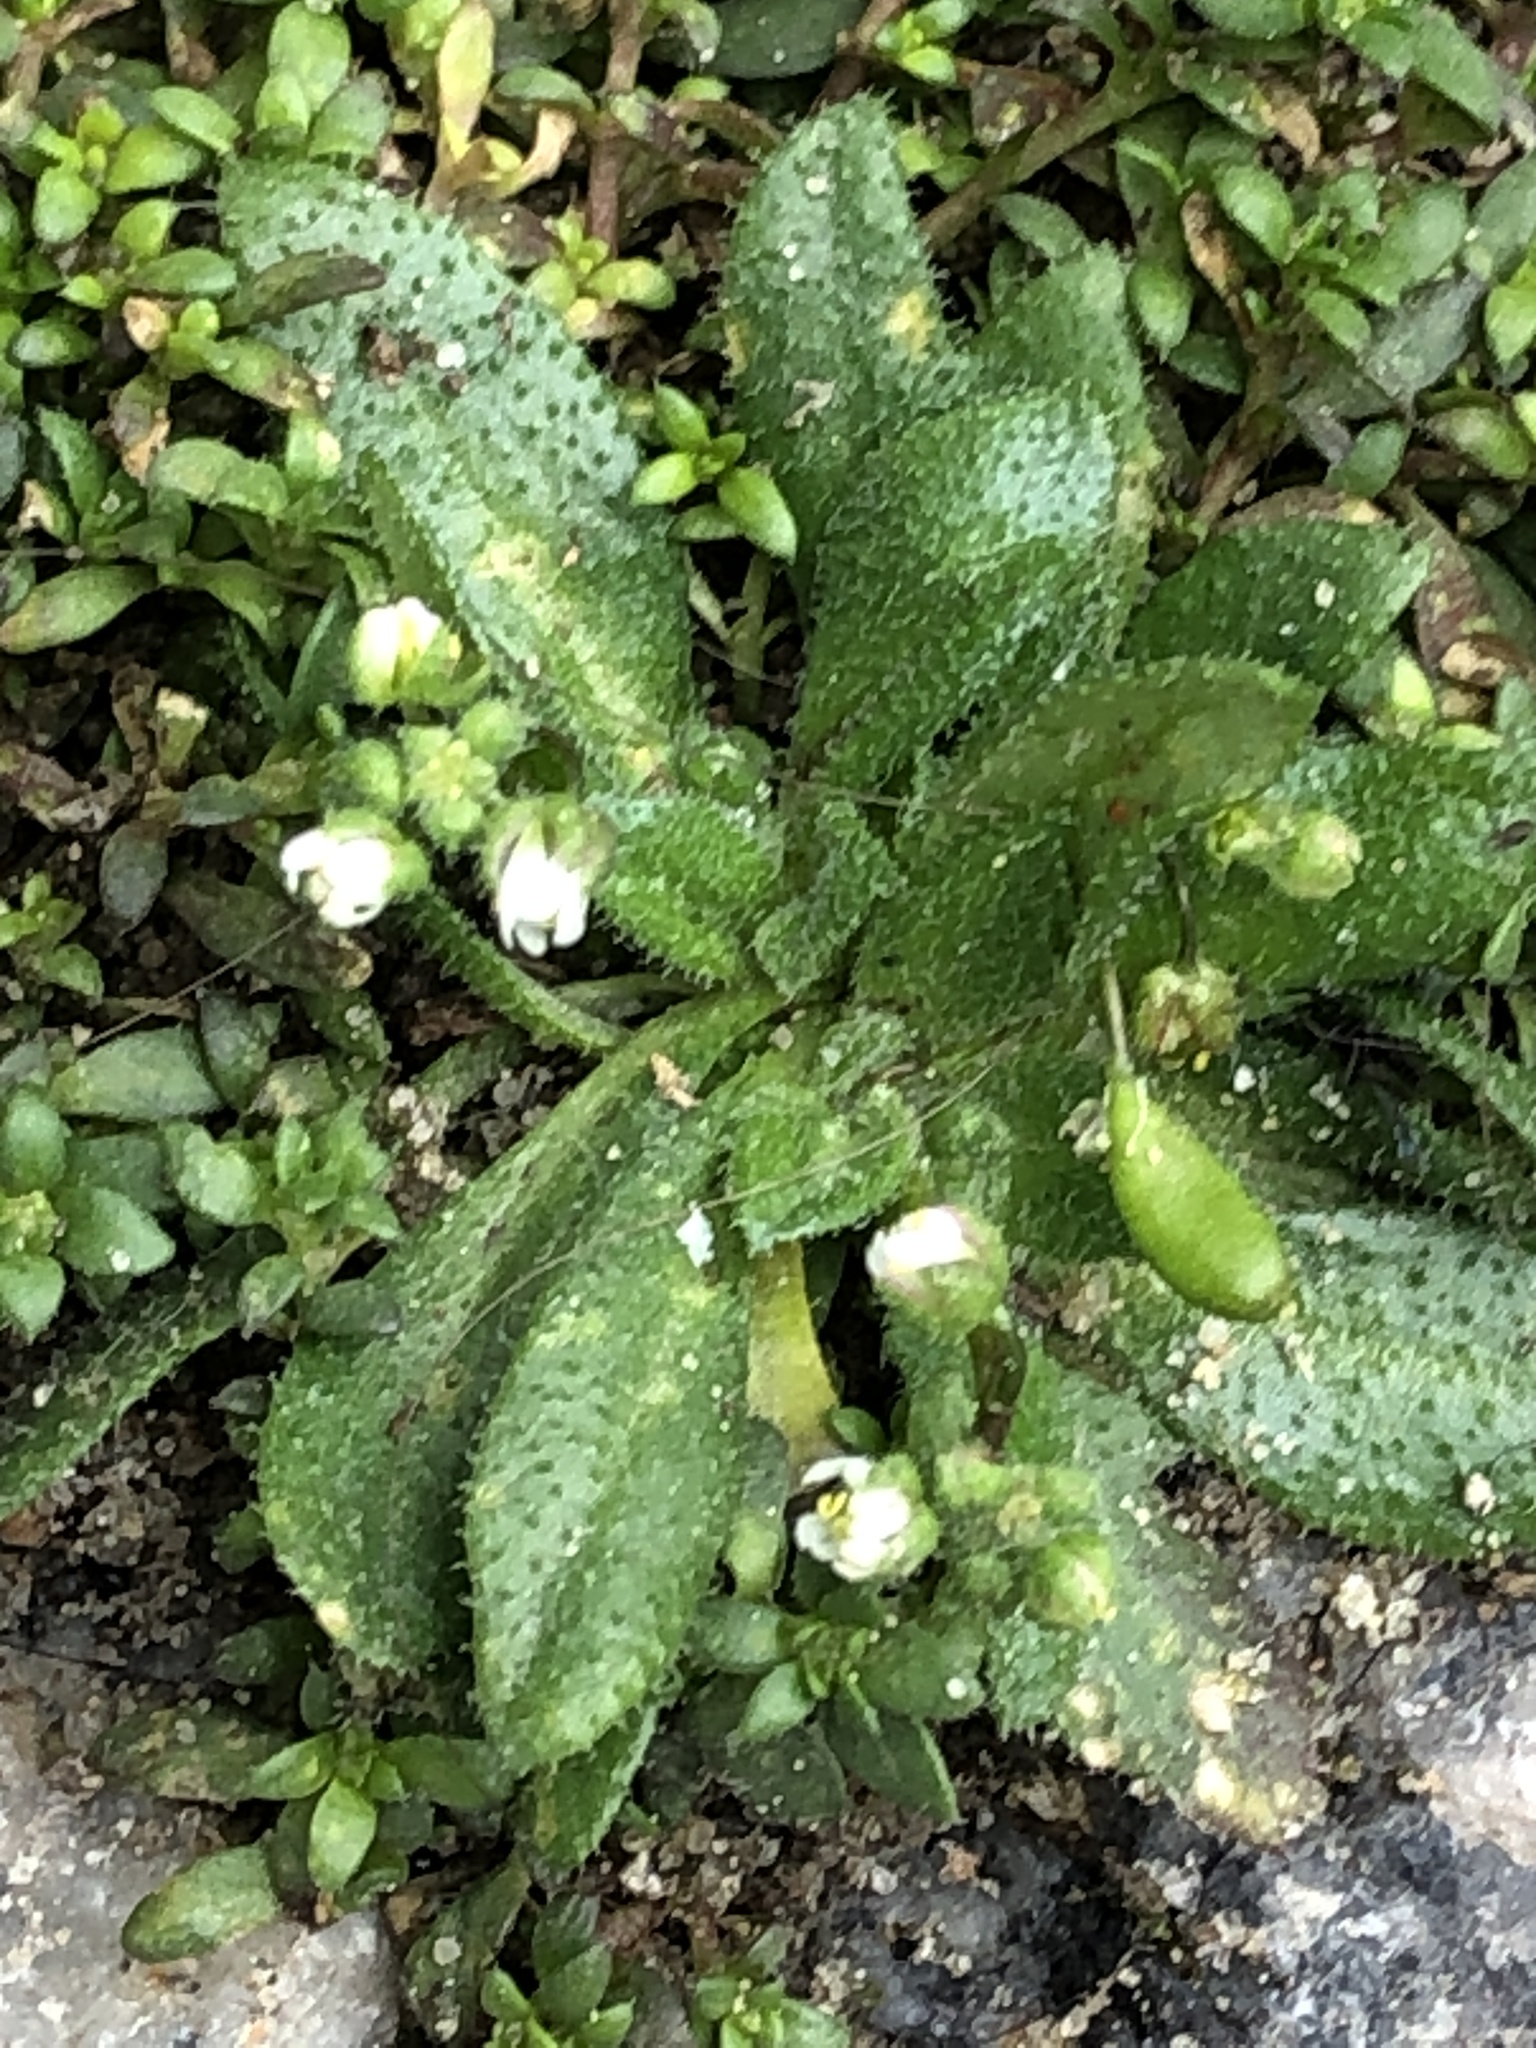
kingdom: Plantae
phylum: Tracheophyta
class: Magnoliopsida
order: Brassicales
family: Brassicaceae
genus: Draba
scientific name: Draba verna
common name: Spring draba
